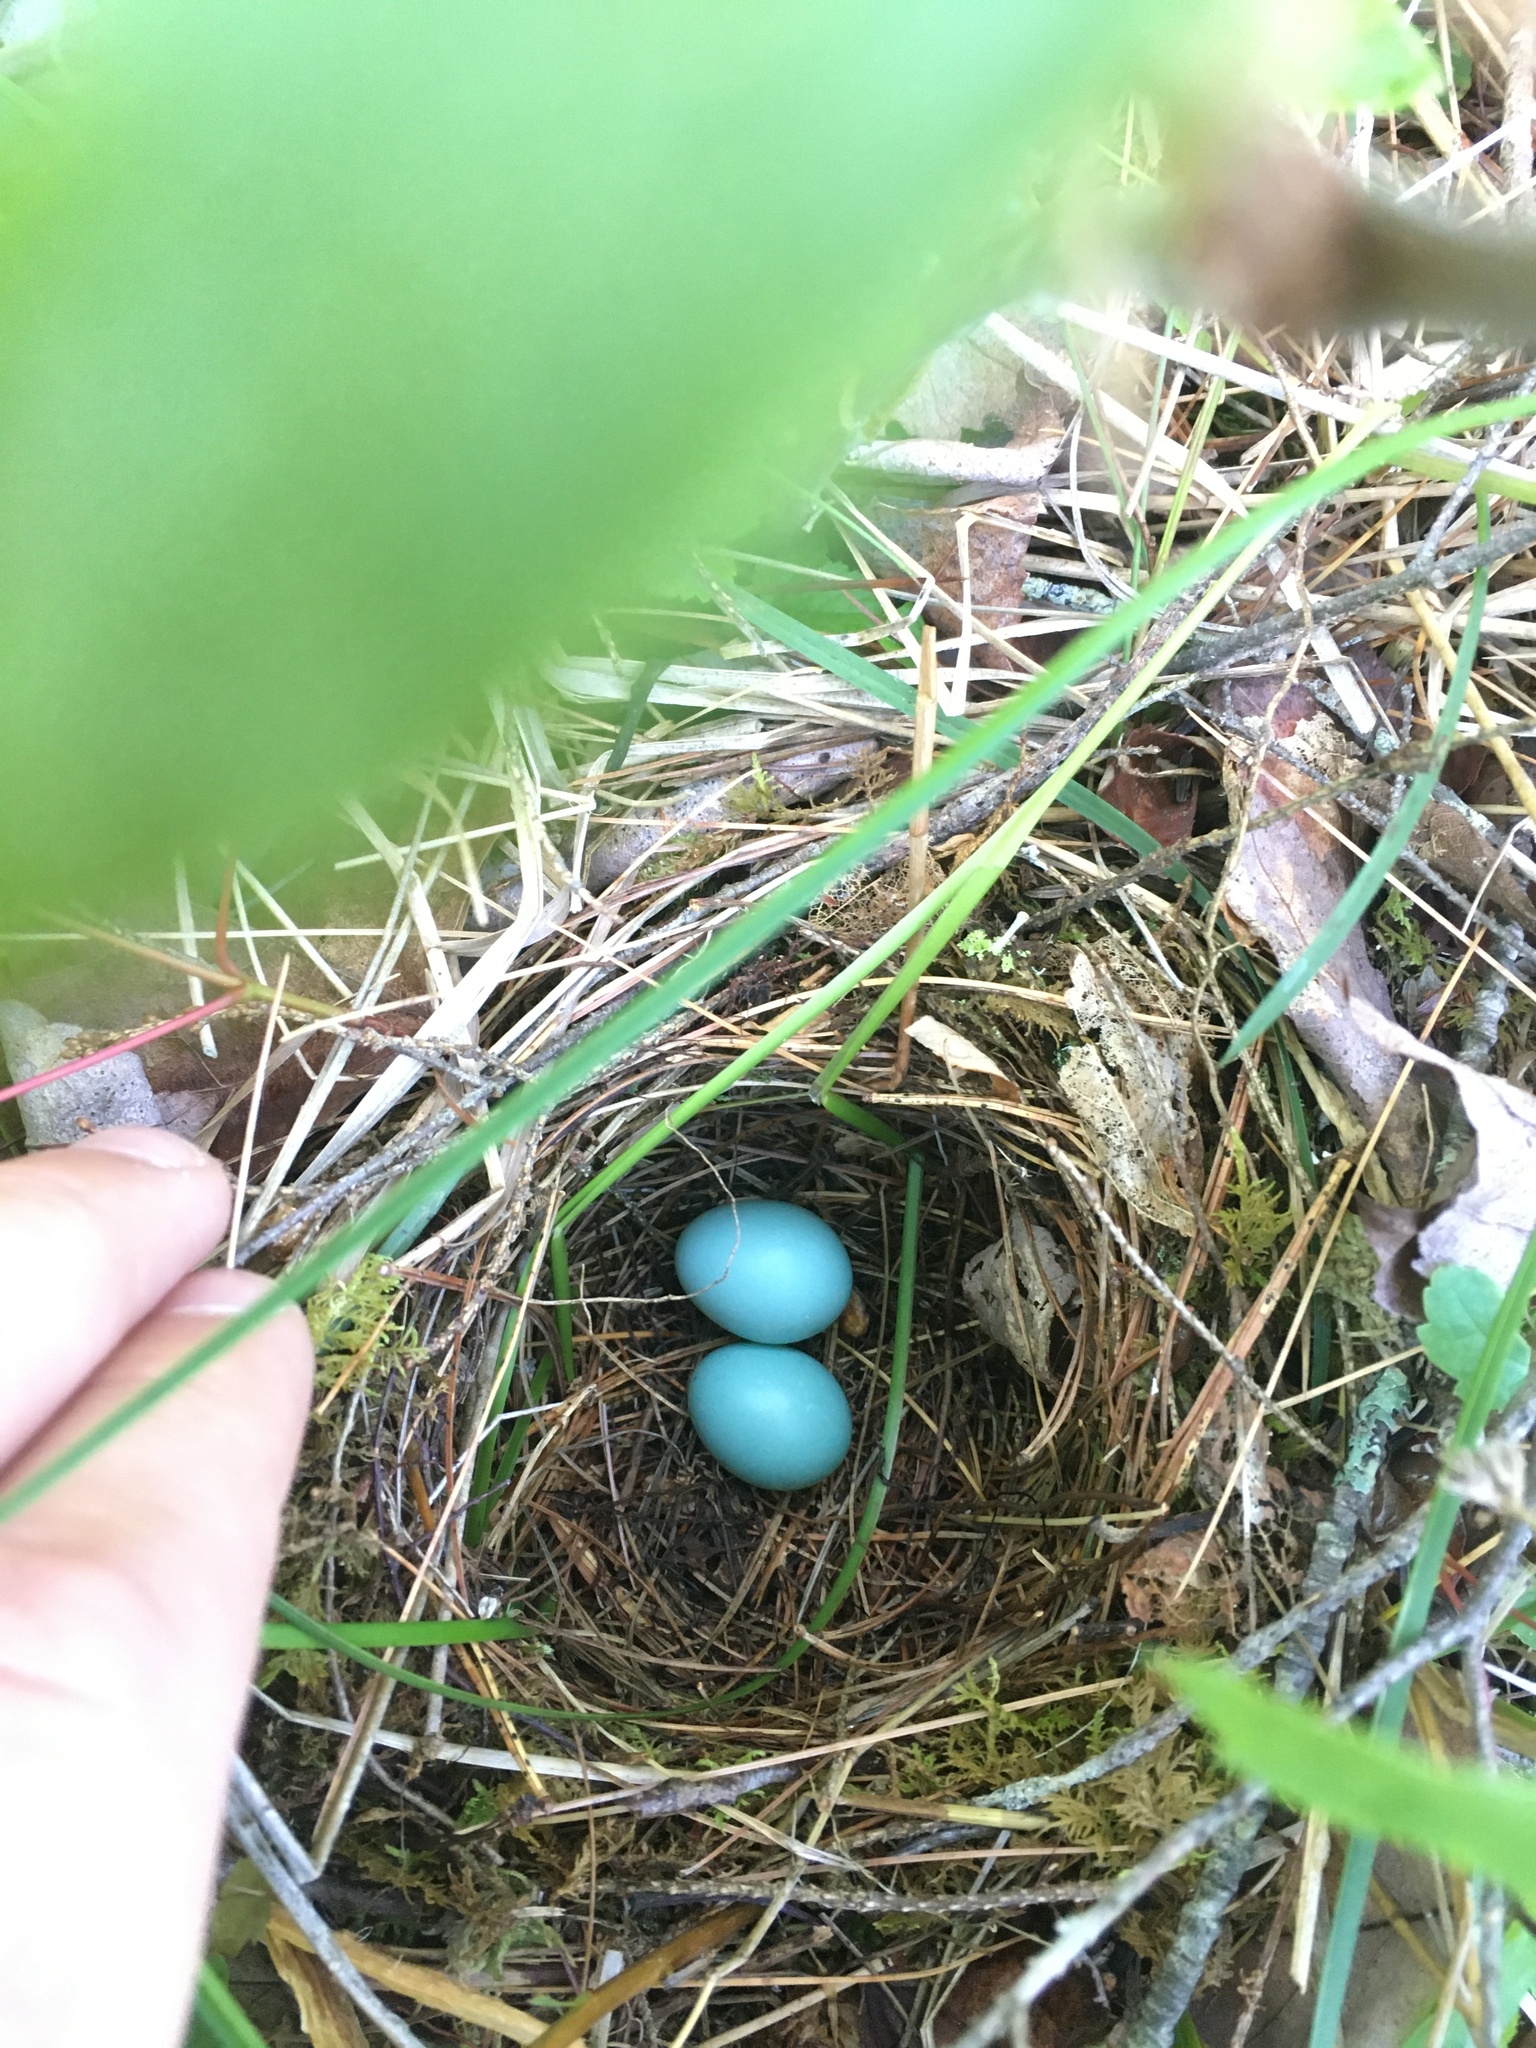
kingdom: Animalia
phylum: Chordata
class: Aves
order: Passeriformes
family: Turdidae
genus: Catharus
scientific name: Catharus guttatus
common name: Hermit thrush
